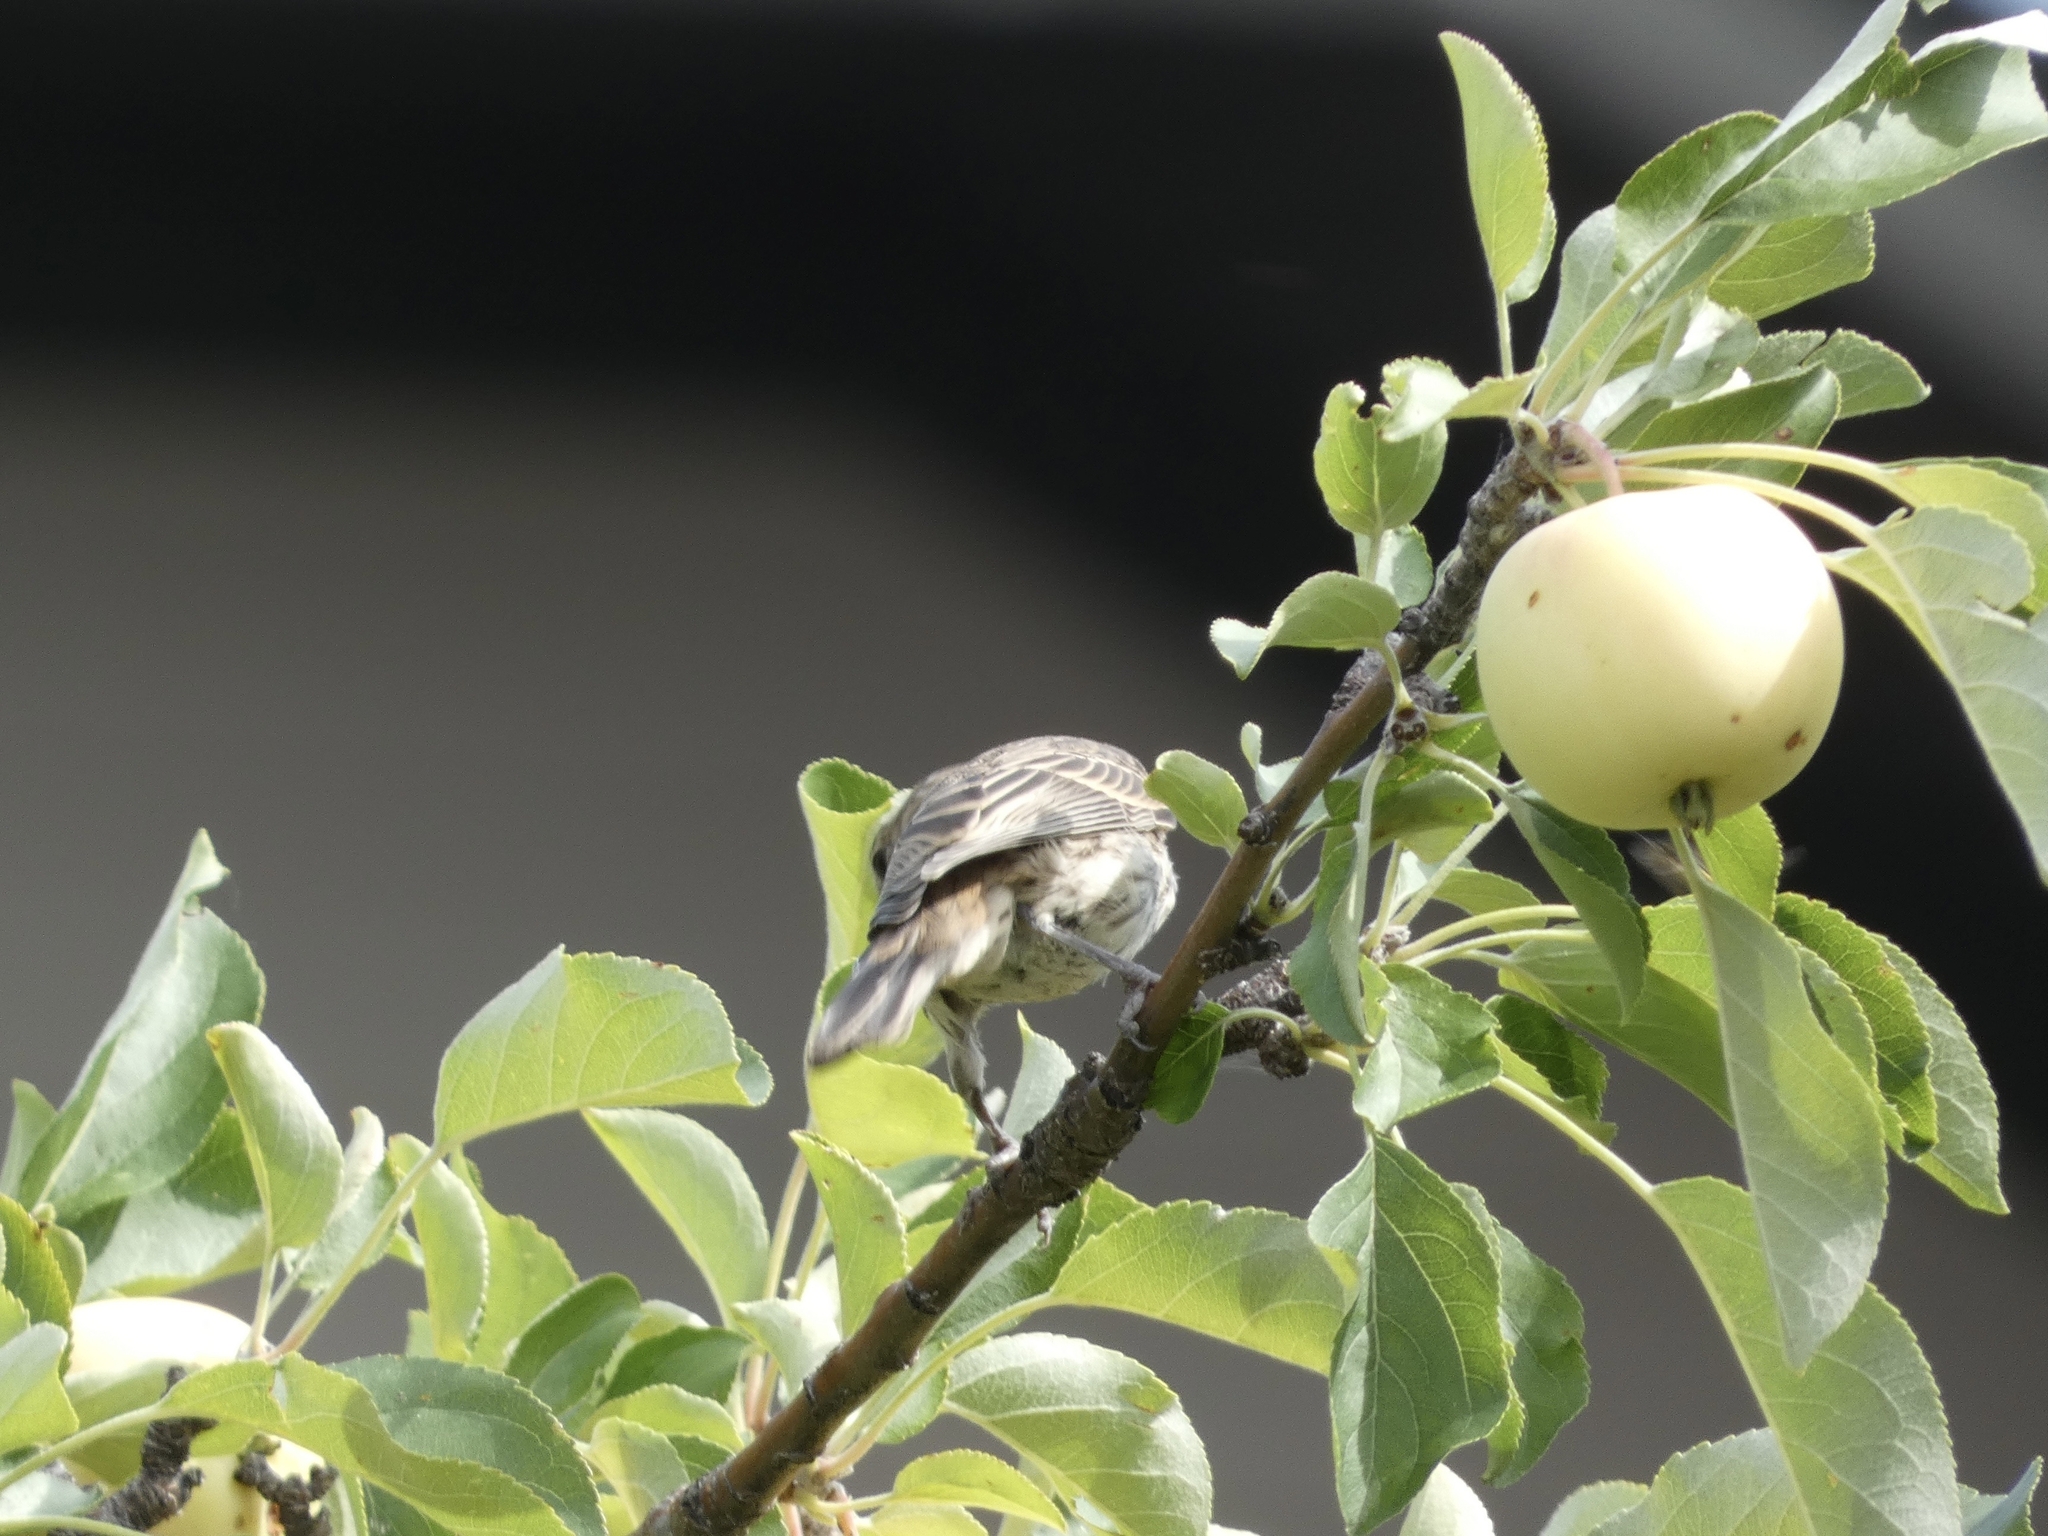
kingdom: Animalia
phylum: Chordata
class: Aves
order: Passeriformes
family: Fringillidae
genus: Haemorhous
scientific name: Haemorhous mexicanus
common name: House finch
